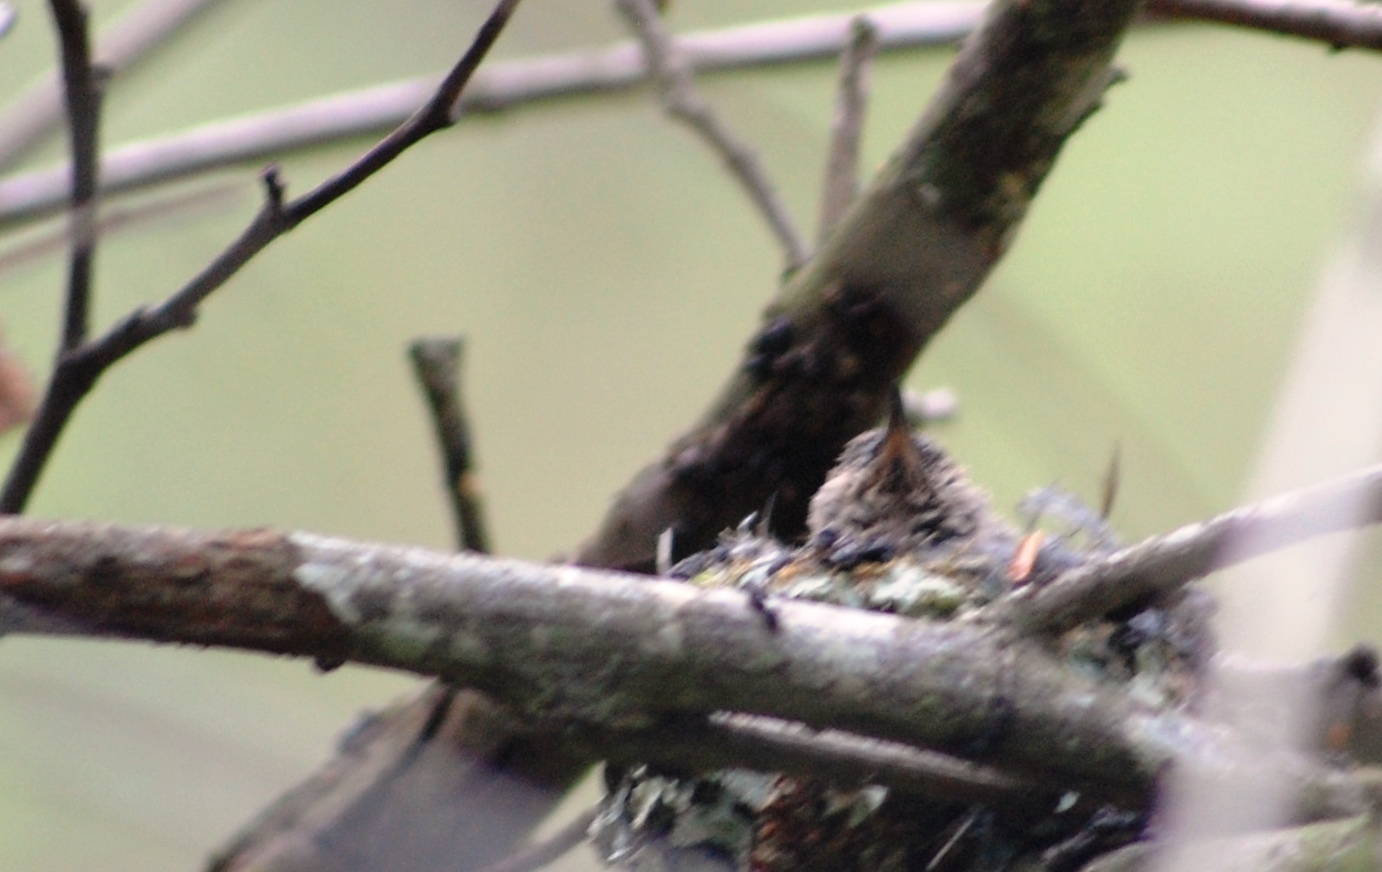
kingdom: Animalia
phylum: Chordata
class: Aves
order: Apodiformes
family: Trochilidae
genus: Calypte
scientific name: Calypte anna
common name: Anna's hummingbird
